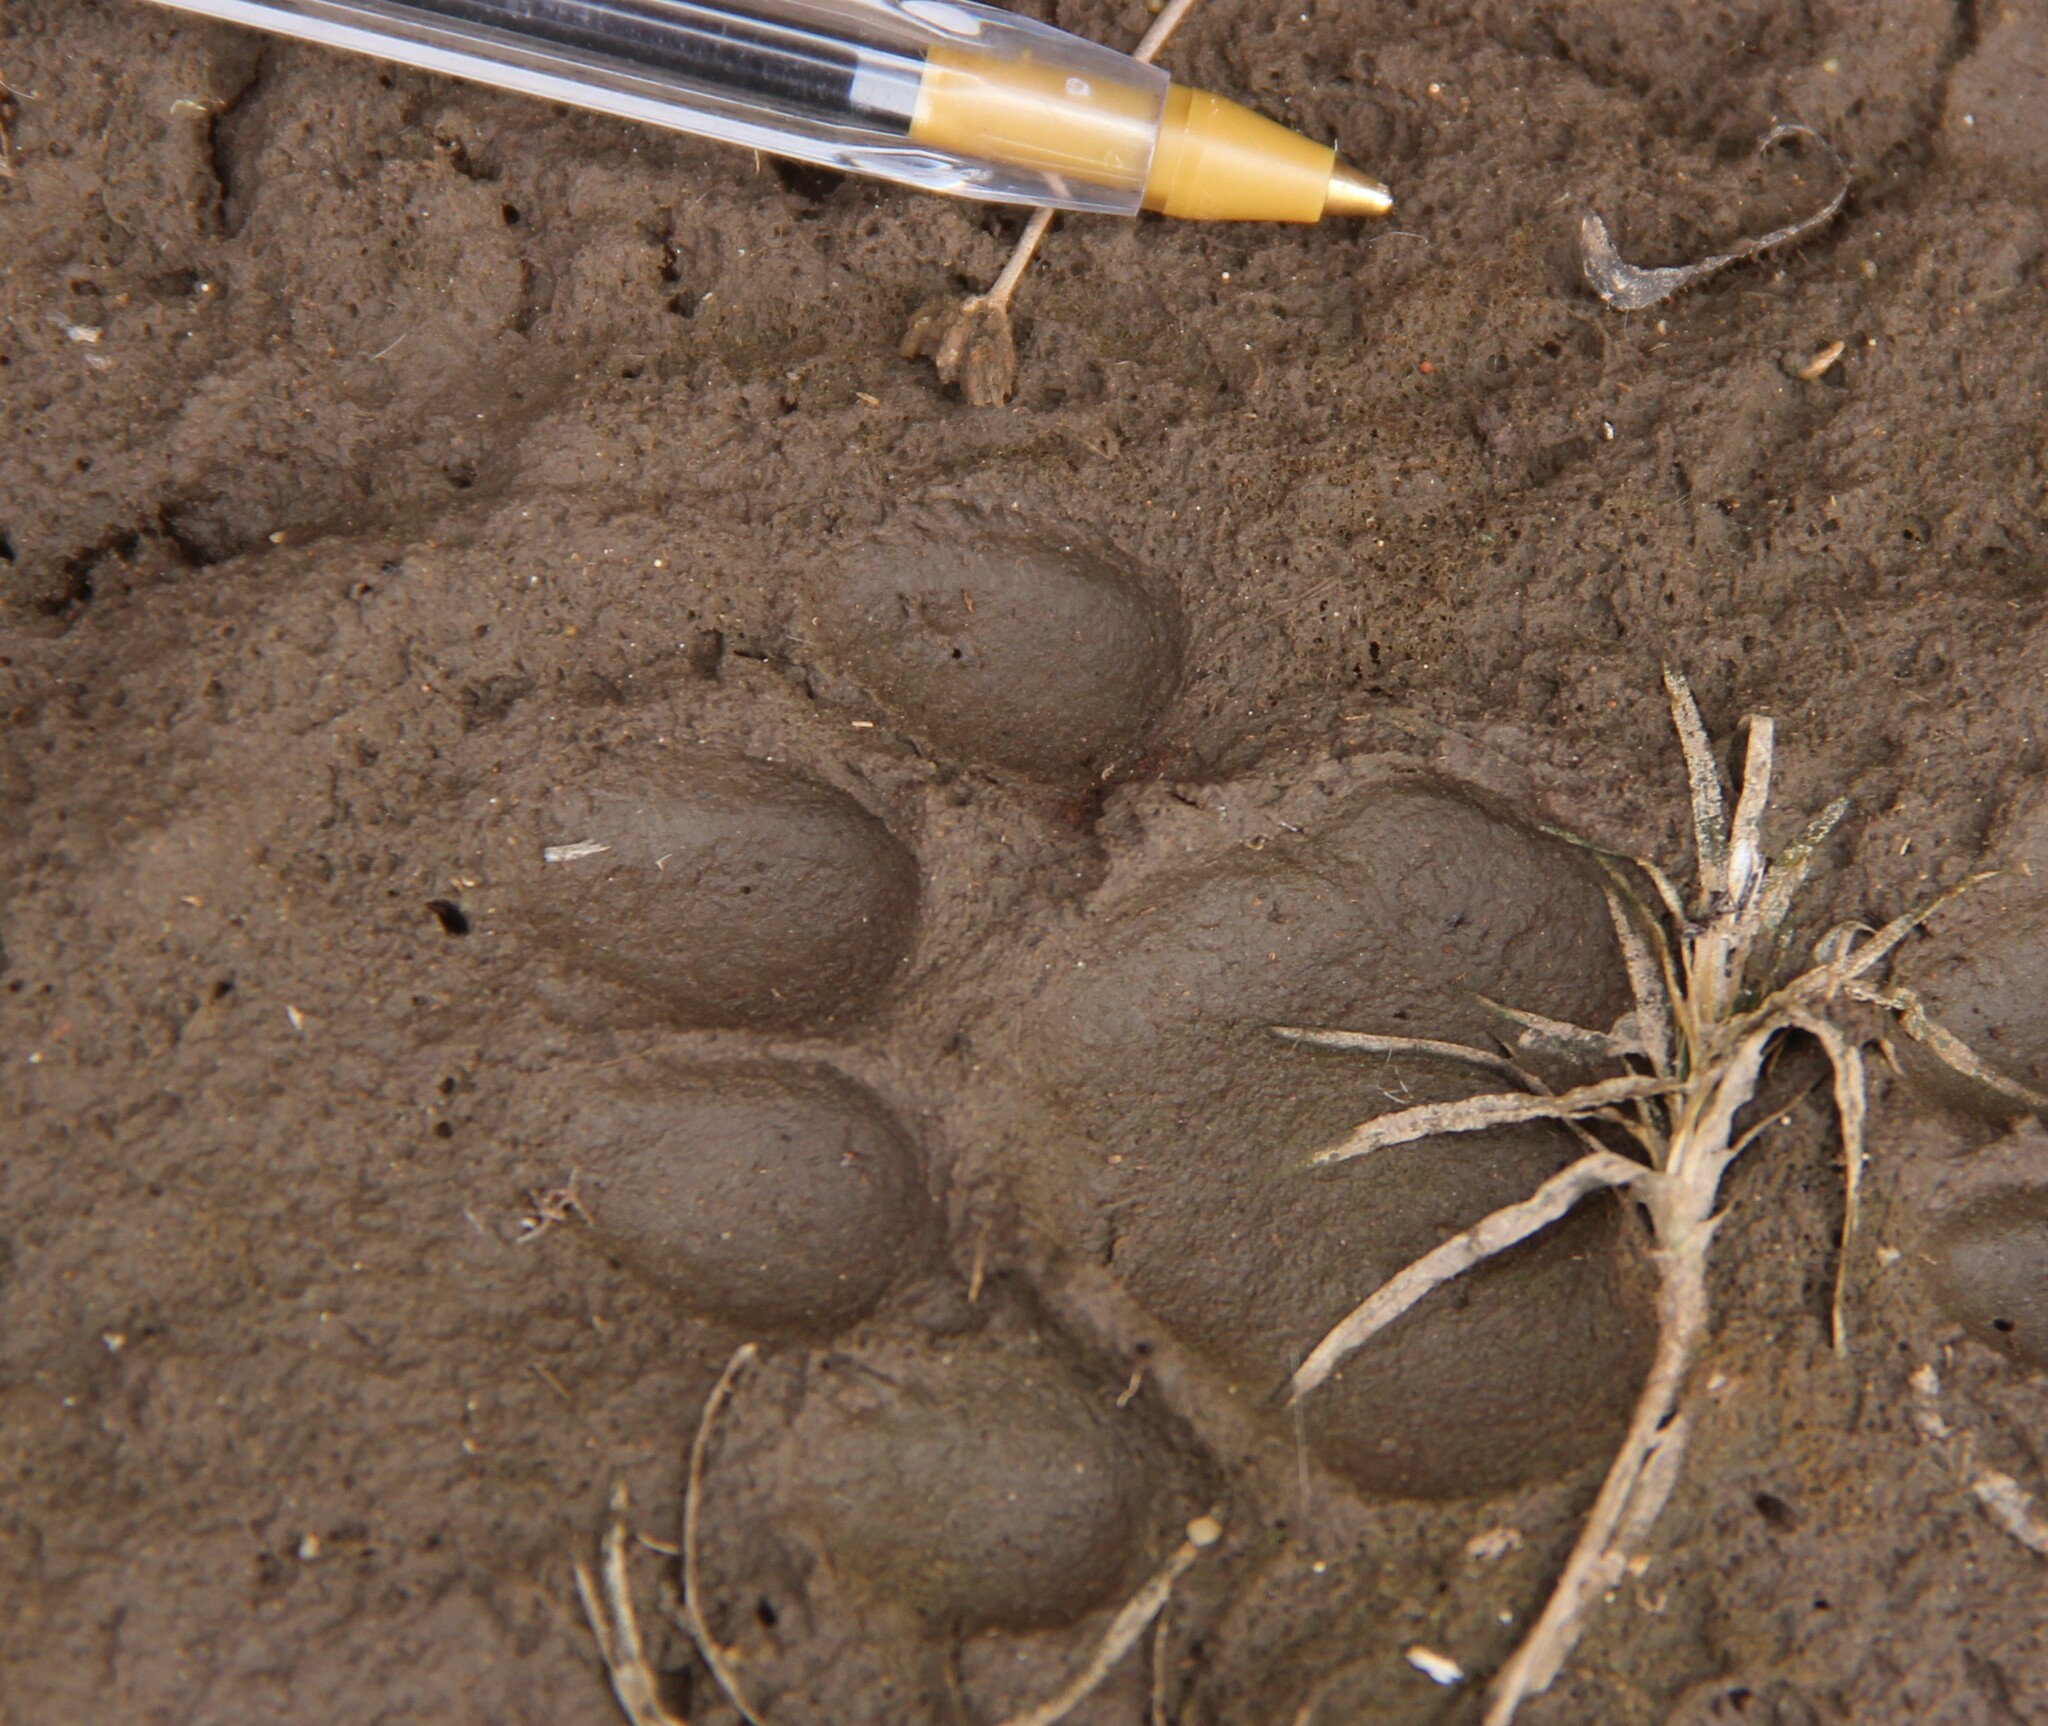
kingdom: Animalia
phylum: Chordata
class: Mammalia
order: Carnivora
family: Felidae
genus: Lynx
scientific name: Lynx rufus
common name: Bobcat
